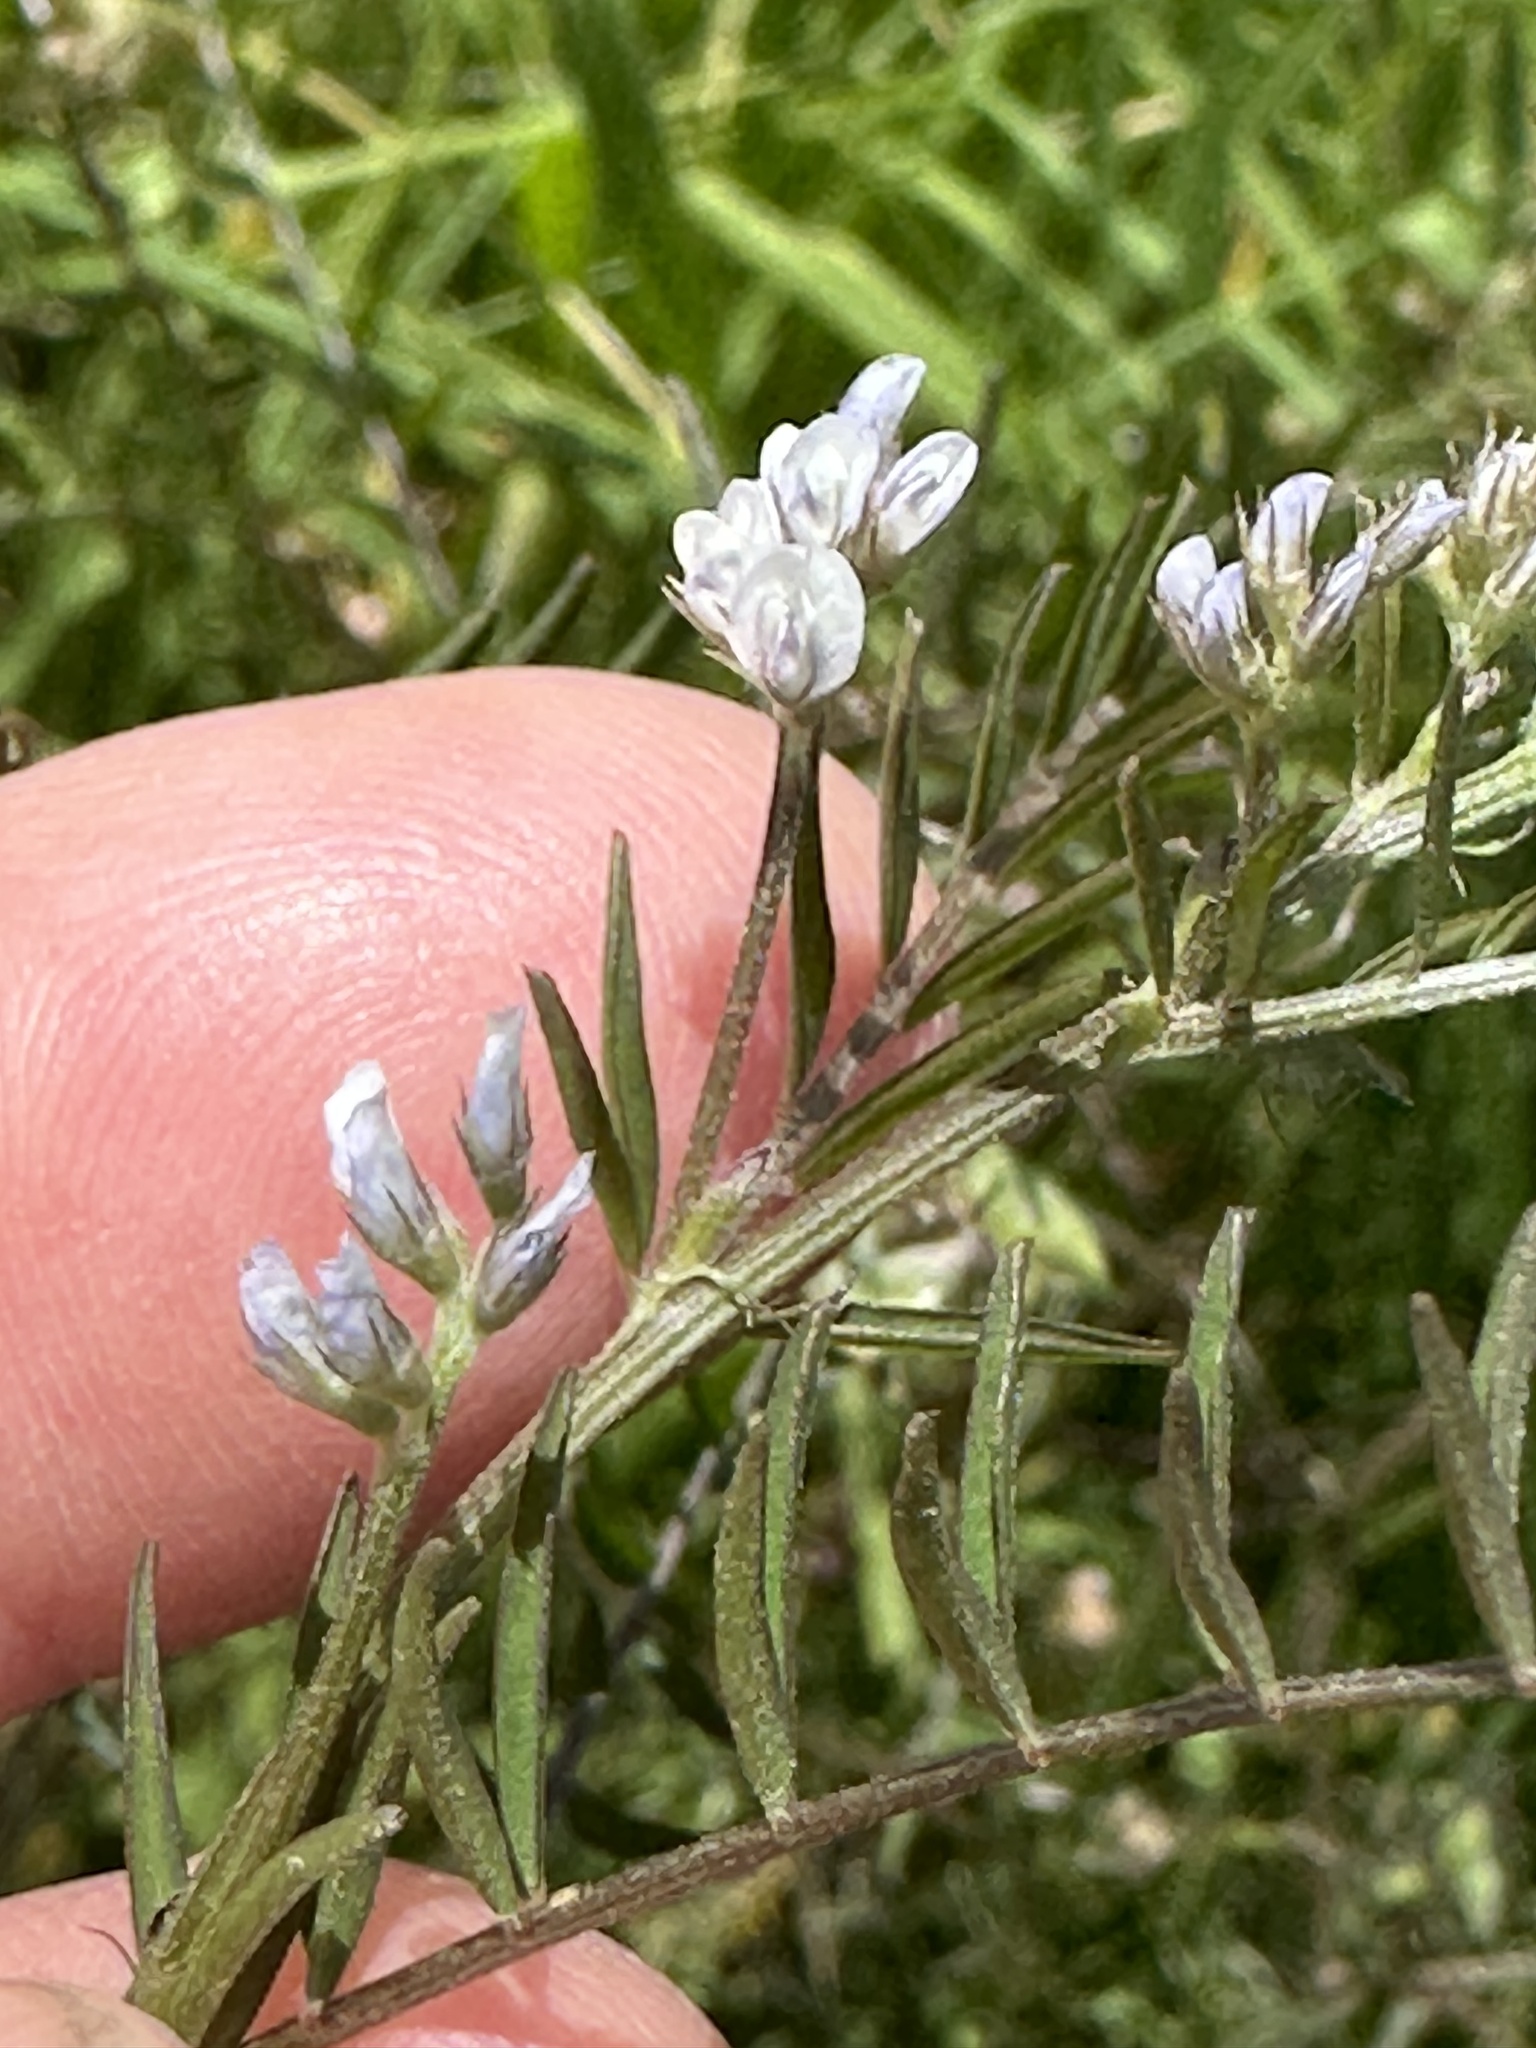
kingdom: Plantae
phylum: Tracheophyta
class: Magnoliopsida
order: Fabales
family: Fabaceae
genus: Vicia
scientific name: Vicia hirsuta
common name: Tiny vetch
